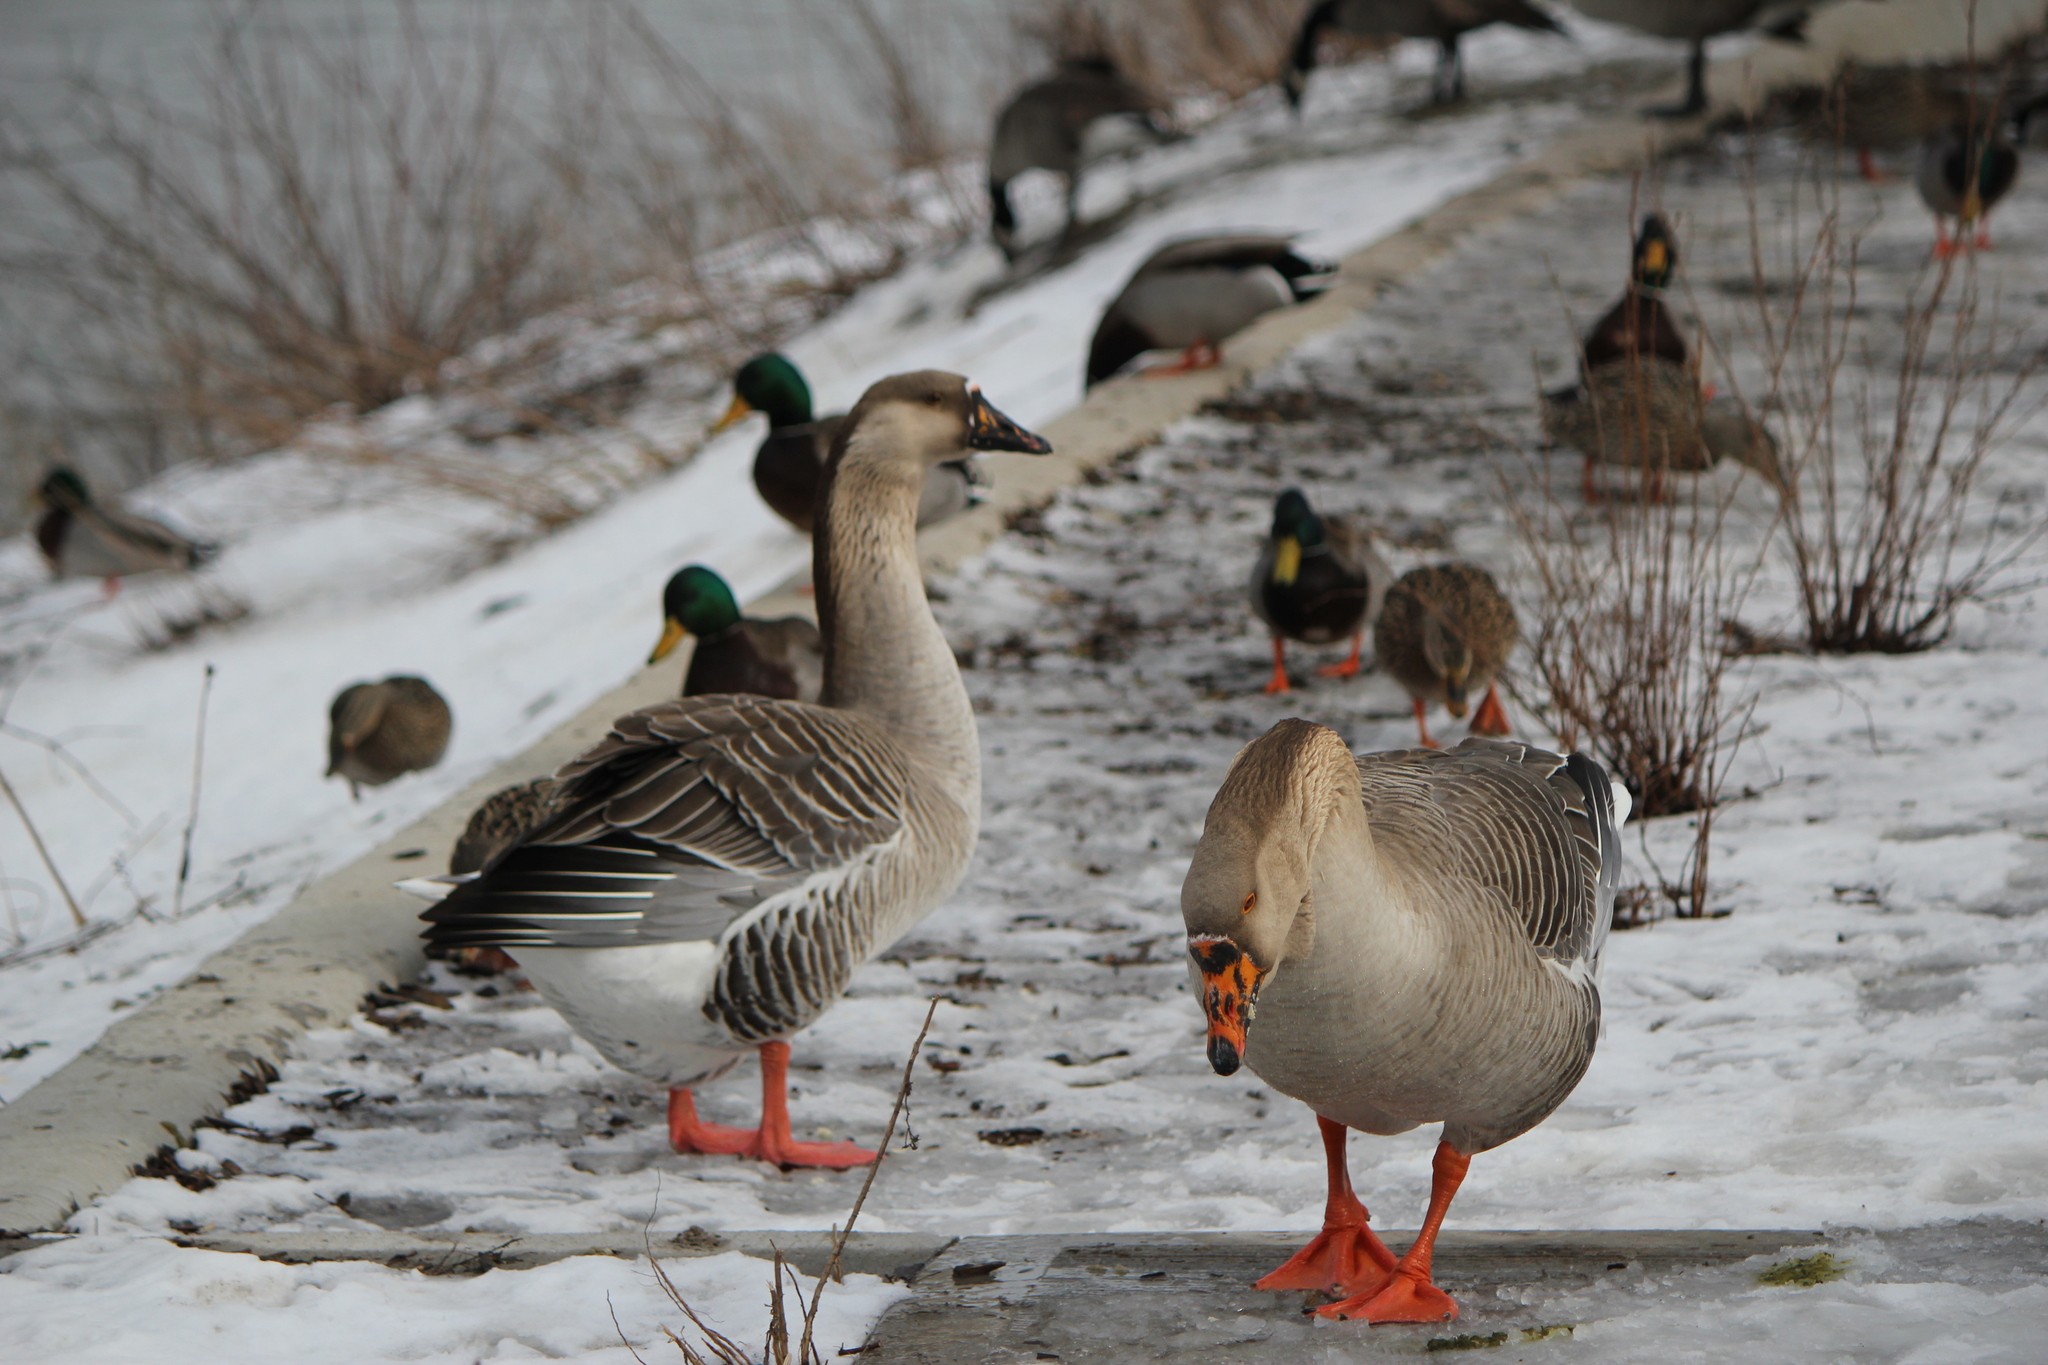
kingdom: Animalia
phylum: Chordata
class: Aves
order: Anseriformes
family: Anatidae
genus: Anser
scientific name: Anser
